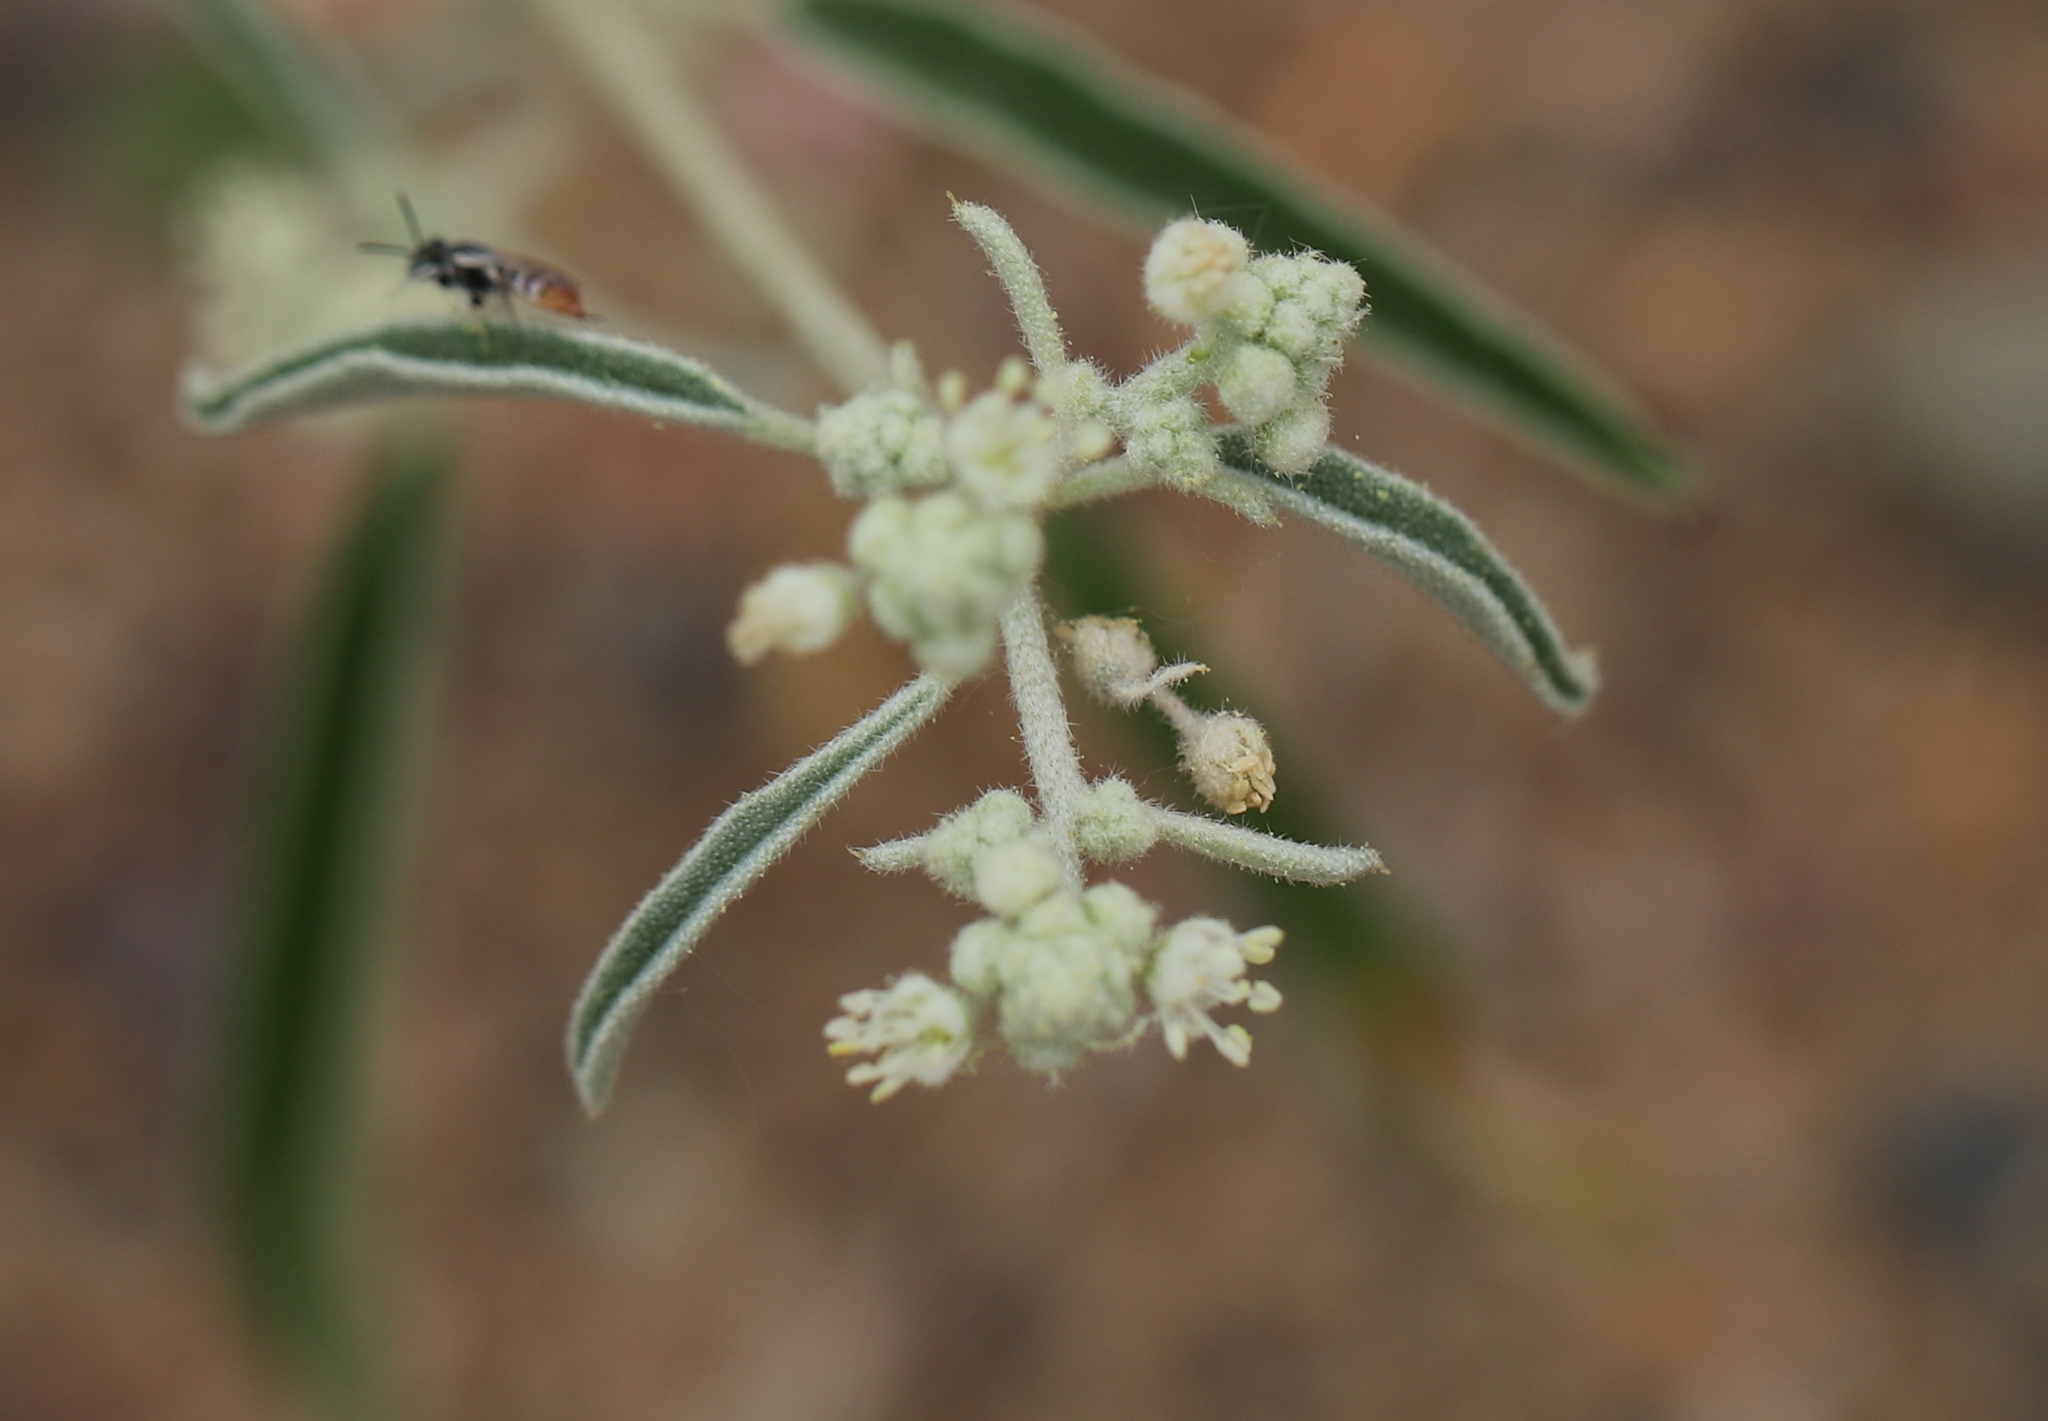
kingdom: Plantae
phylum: Tracheophyta
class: Magnoliopsida
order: Malpighiales
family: Euphorbiaceae
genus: Croton
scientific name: Croton texensis
